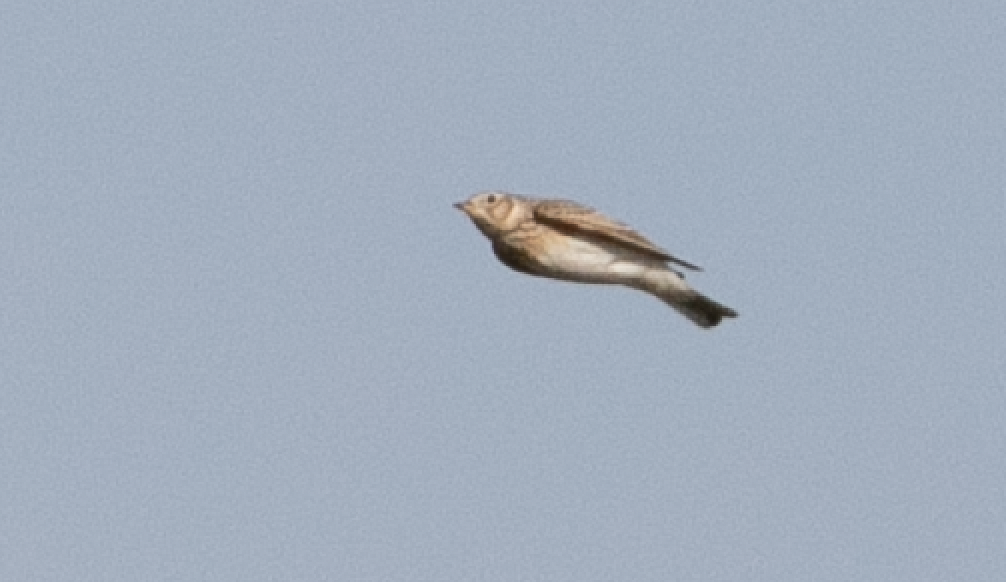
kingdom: Animalia
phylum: Chordata
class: Aves
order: Passeriformes
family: Alaudidae
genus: Alauda
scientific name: Alauda arvensis
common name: Eurasian skylark
